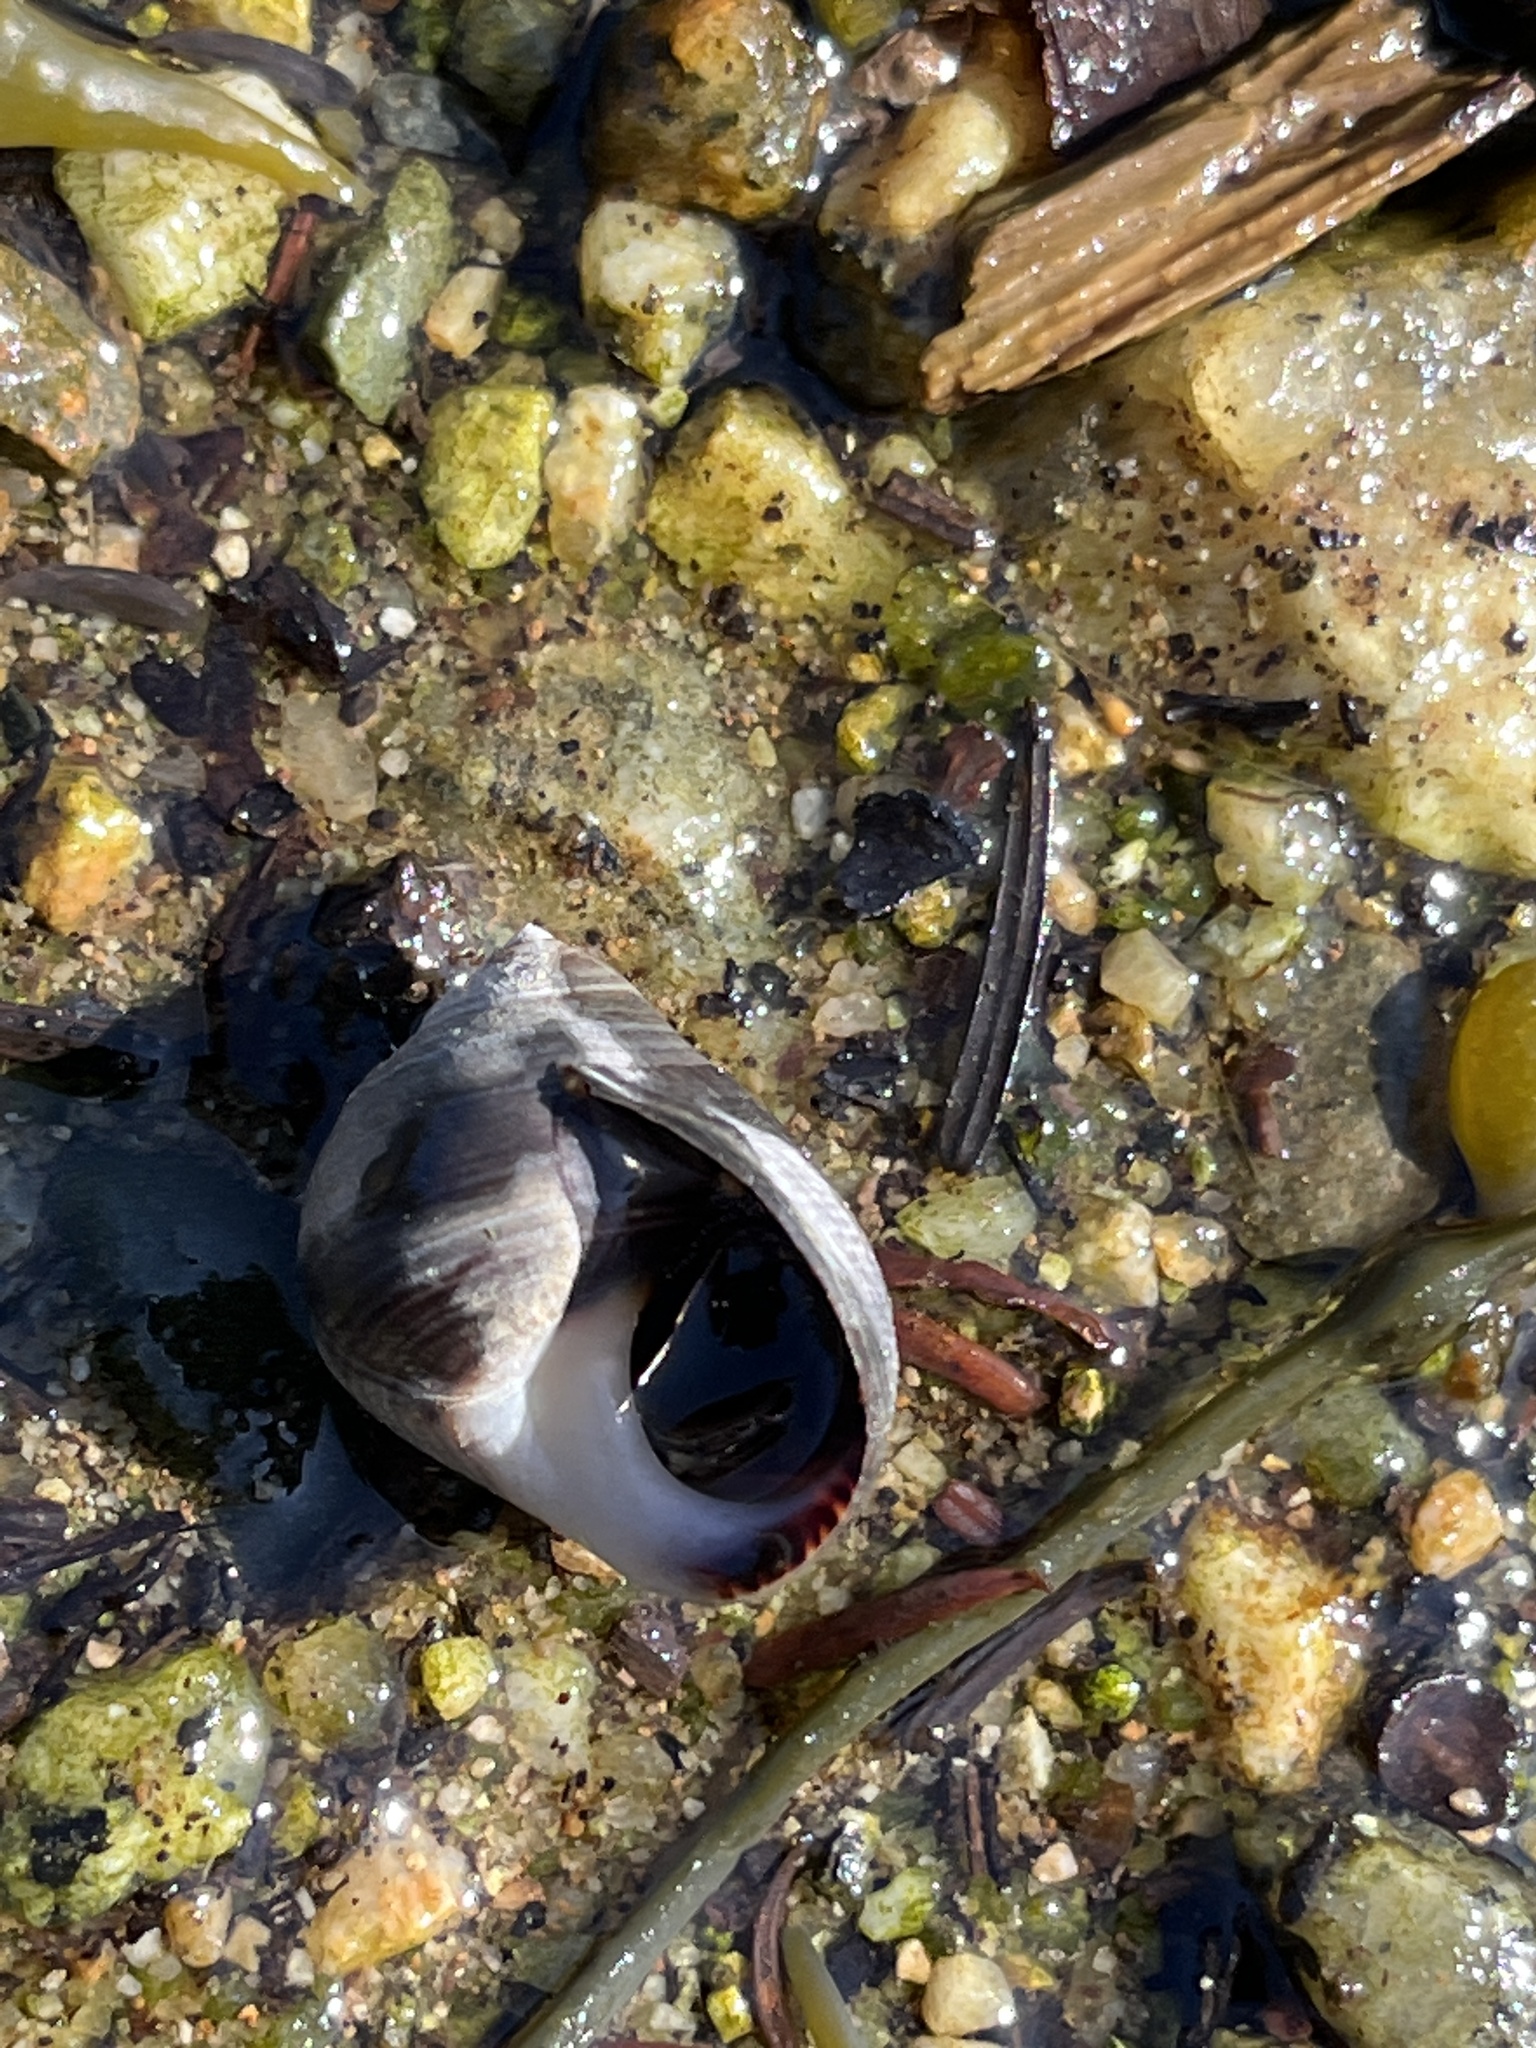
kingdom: Animalia
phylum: Mollusca
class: Gastropoda
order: Littorinimorpha
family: Littorinidae
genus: Littorina
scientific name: Littorina littorea
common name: Common periwinkle
